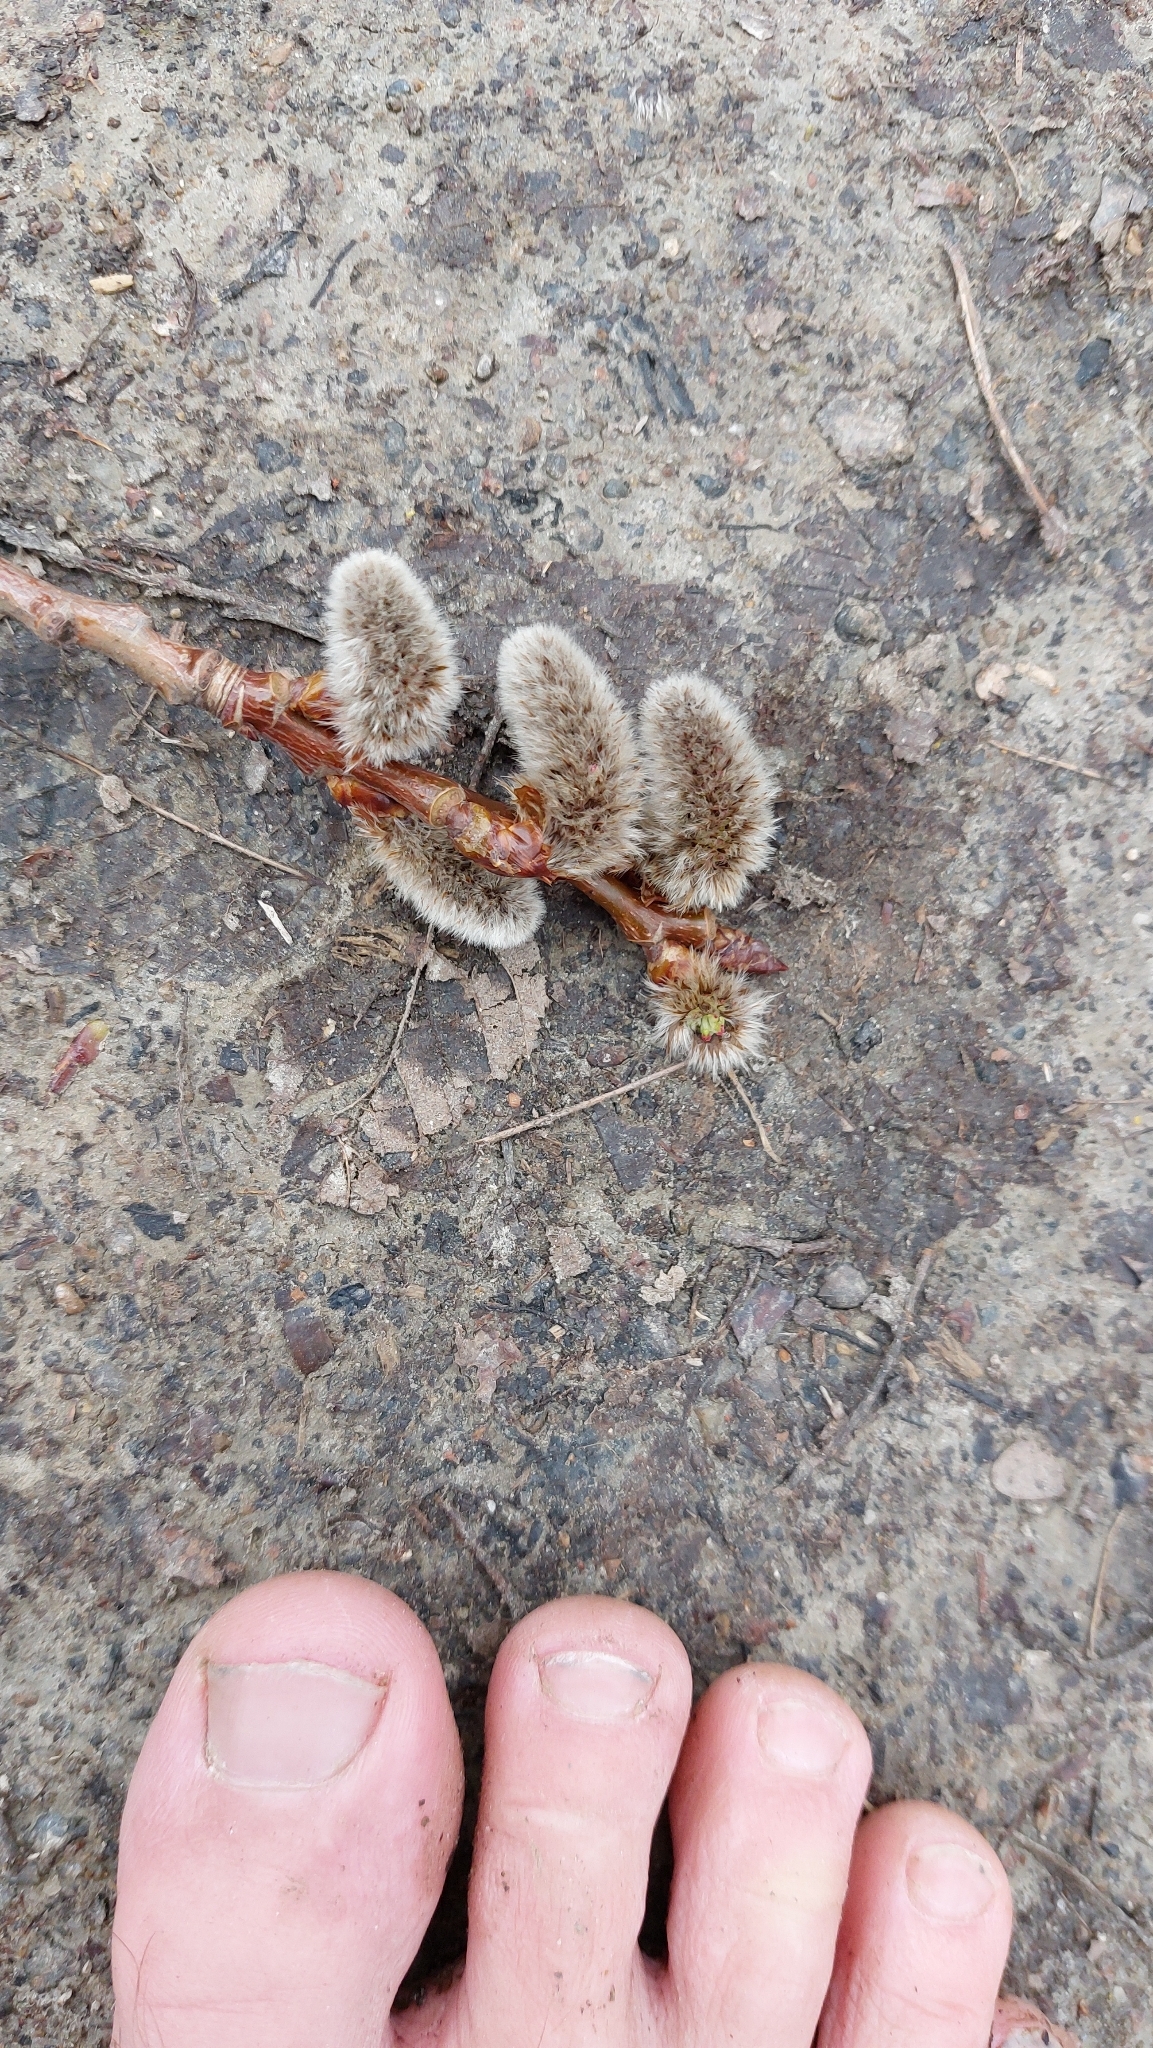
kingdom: Plantae
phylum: Tracheophyta
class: Magnoliopsida
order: Malpighiales
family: Salicaceae
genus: Populus
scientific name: Populus tremula
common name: European aspen
